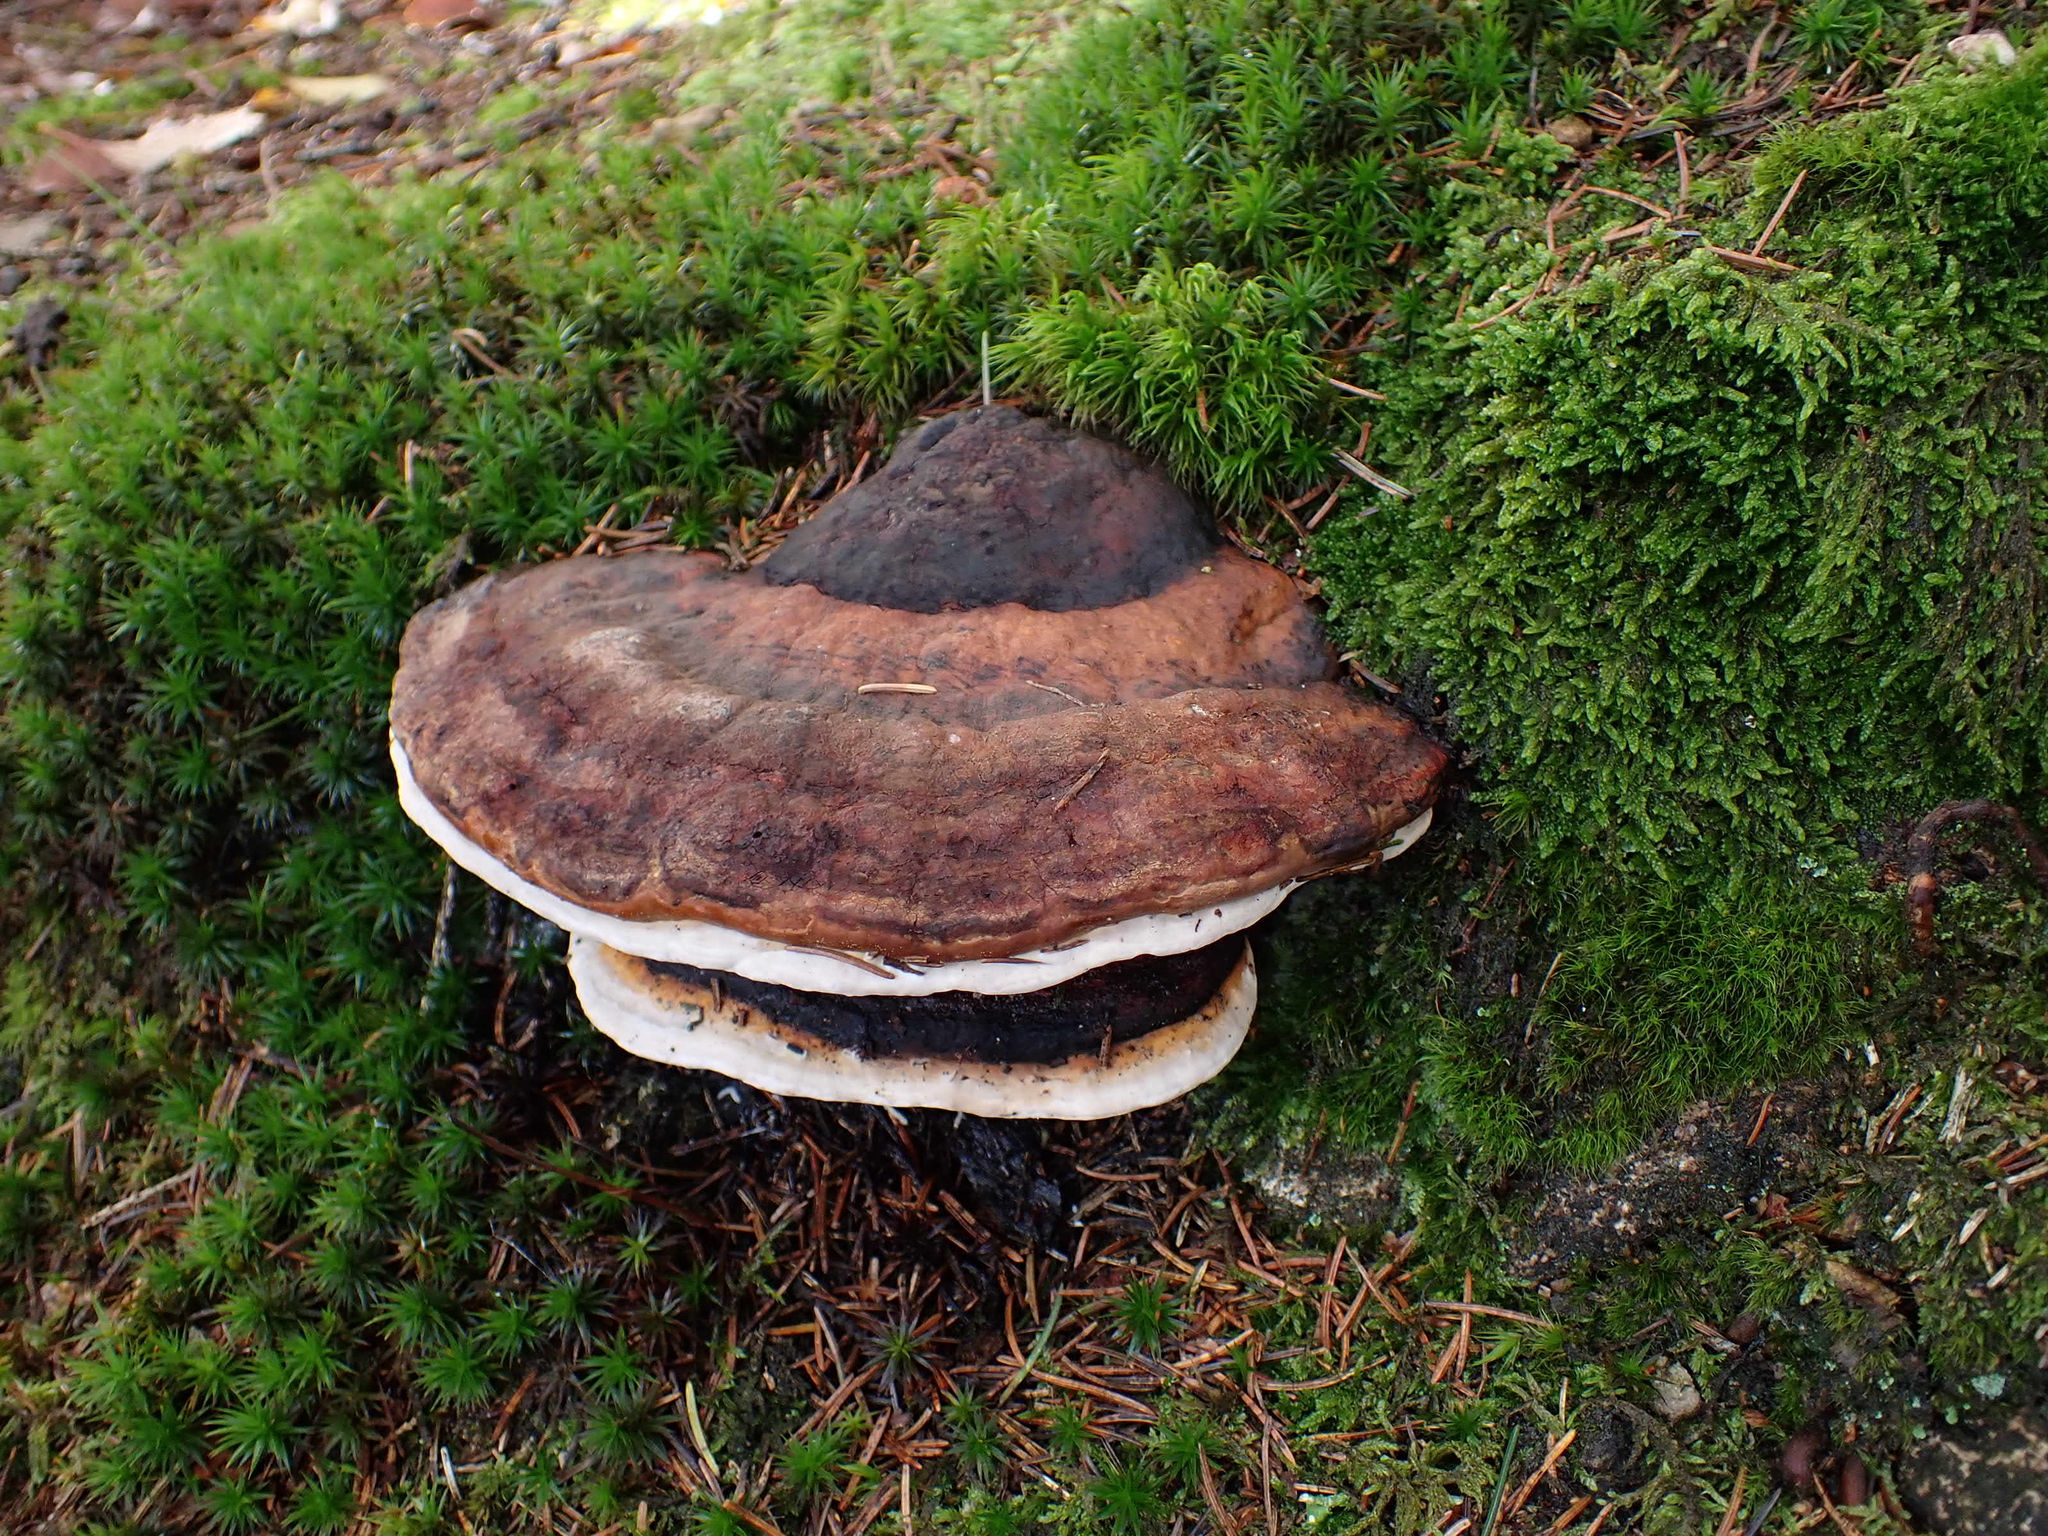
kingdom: Fungi
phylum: Basidiomycota
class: Agaricomycetes
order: Polyporales
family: Fomitopsidaceae
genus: Fomitopsis
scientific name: Fomitopsis pinicola
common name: Red-belted bracket
